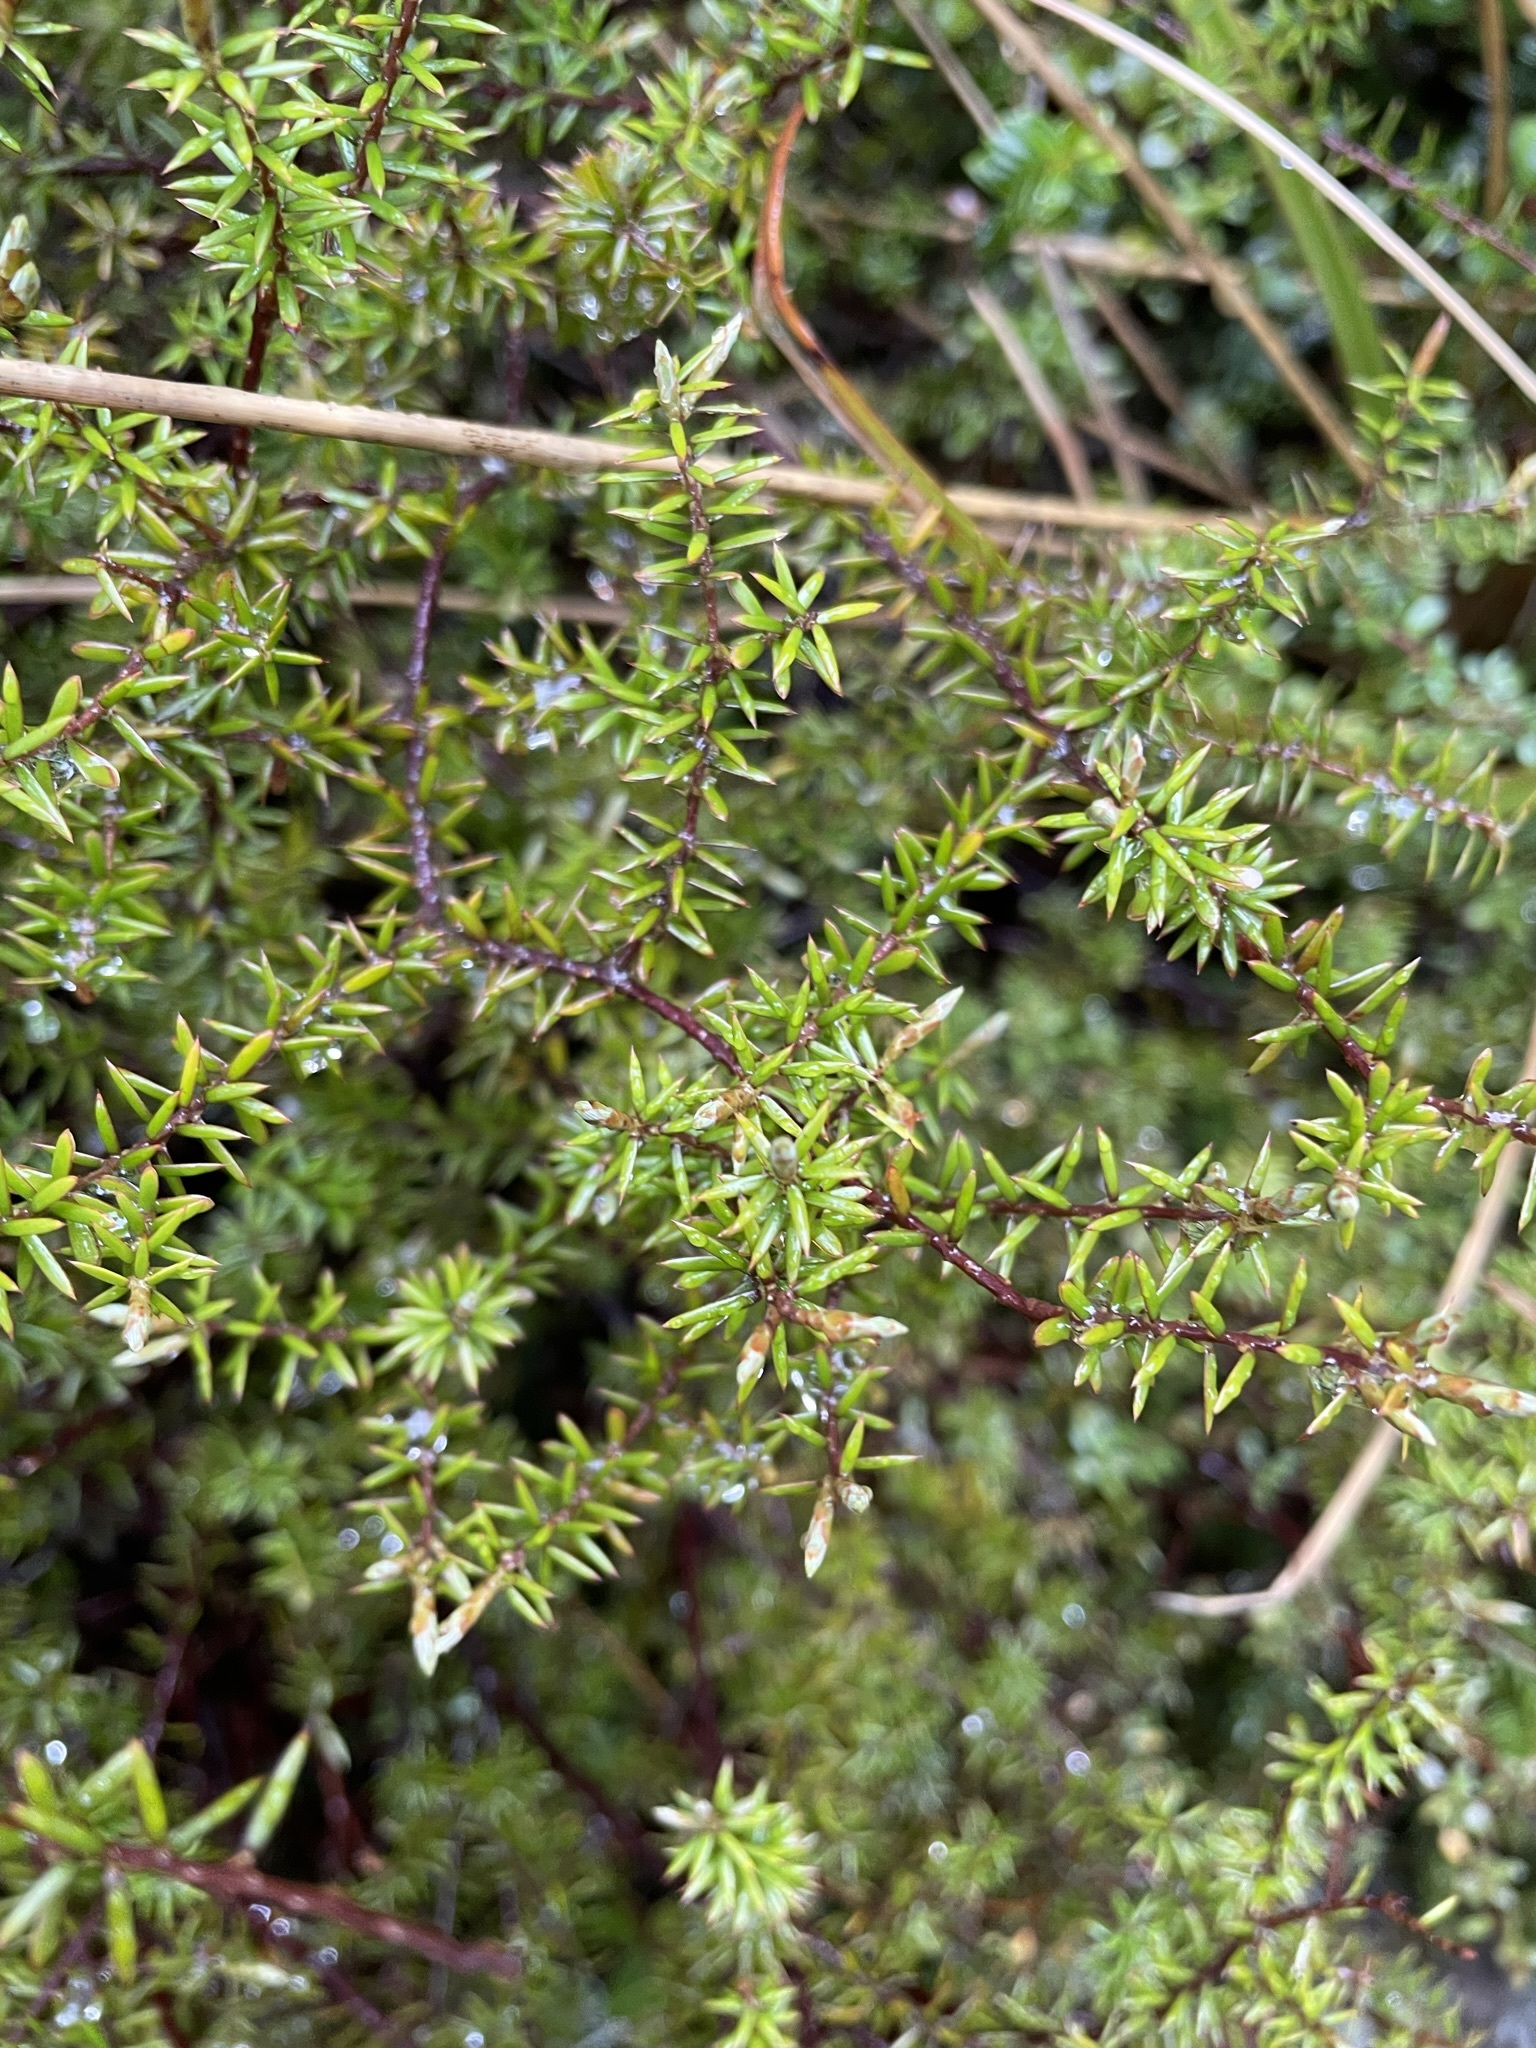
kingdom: Plantae
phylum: Tracheophyta
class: Magnoliopsida
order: Ericales
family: Ericaceae
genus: Leptecophylla
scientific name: Leptecophylla juniperina
